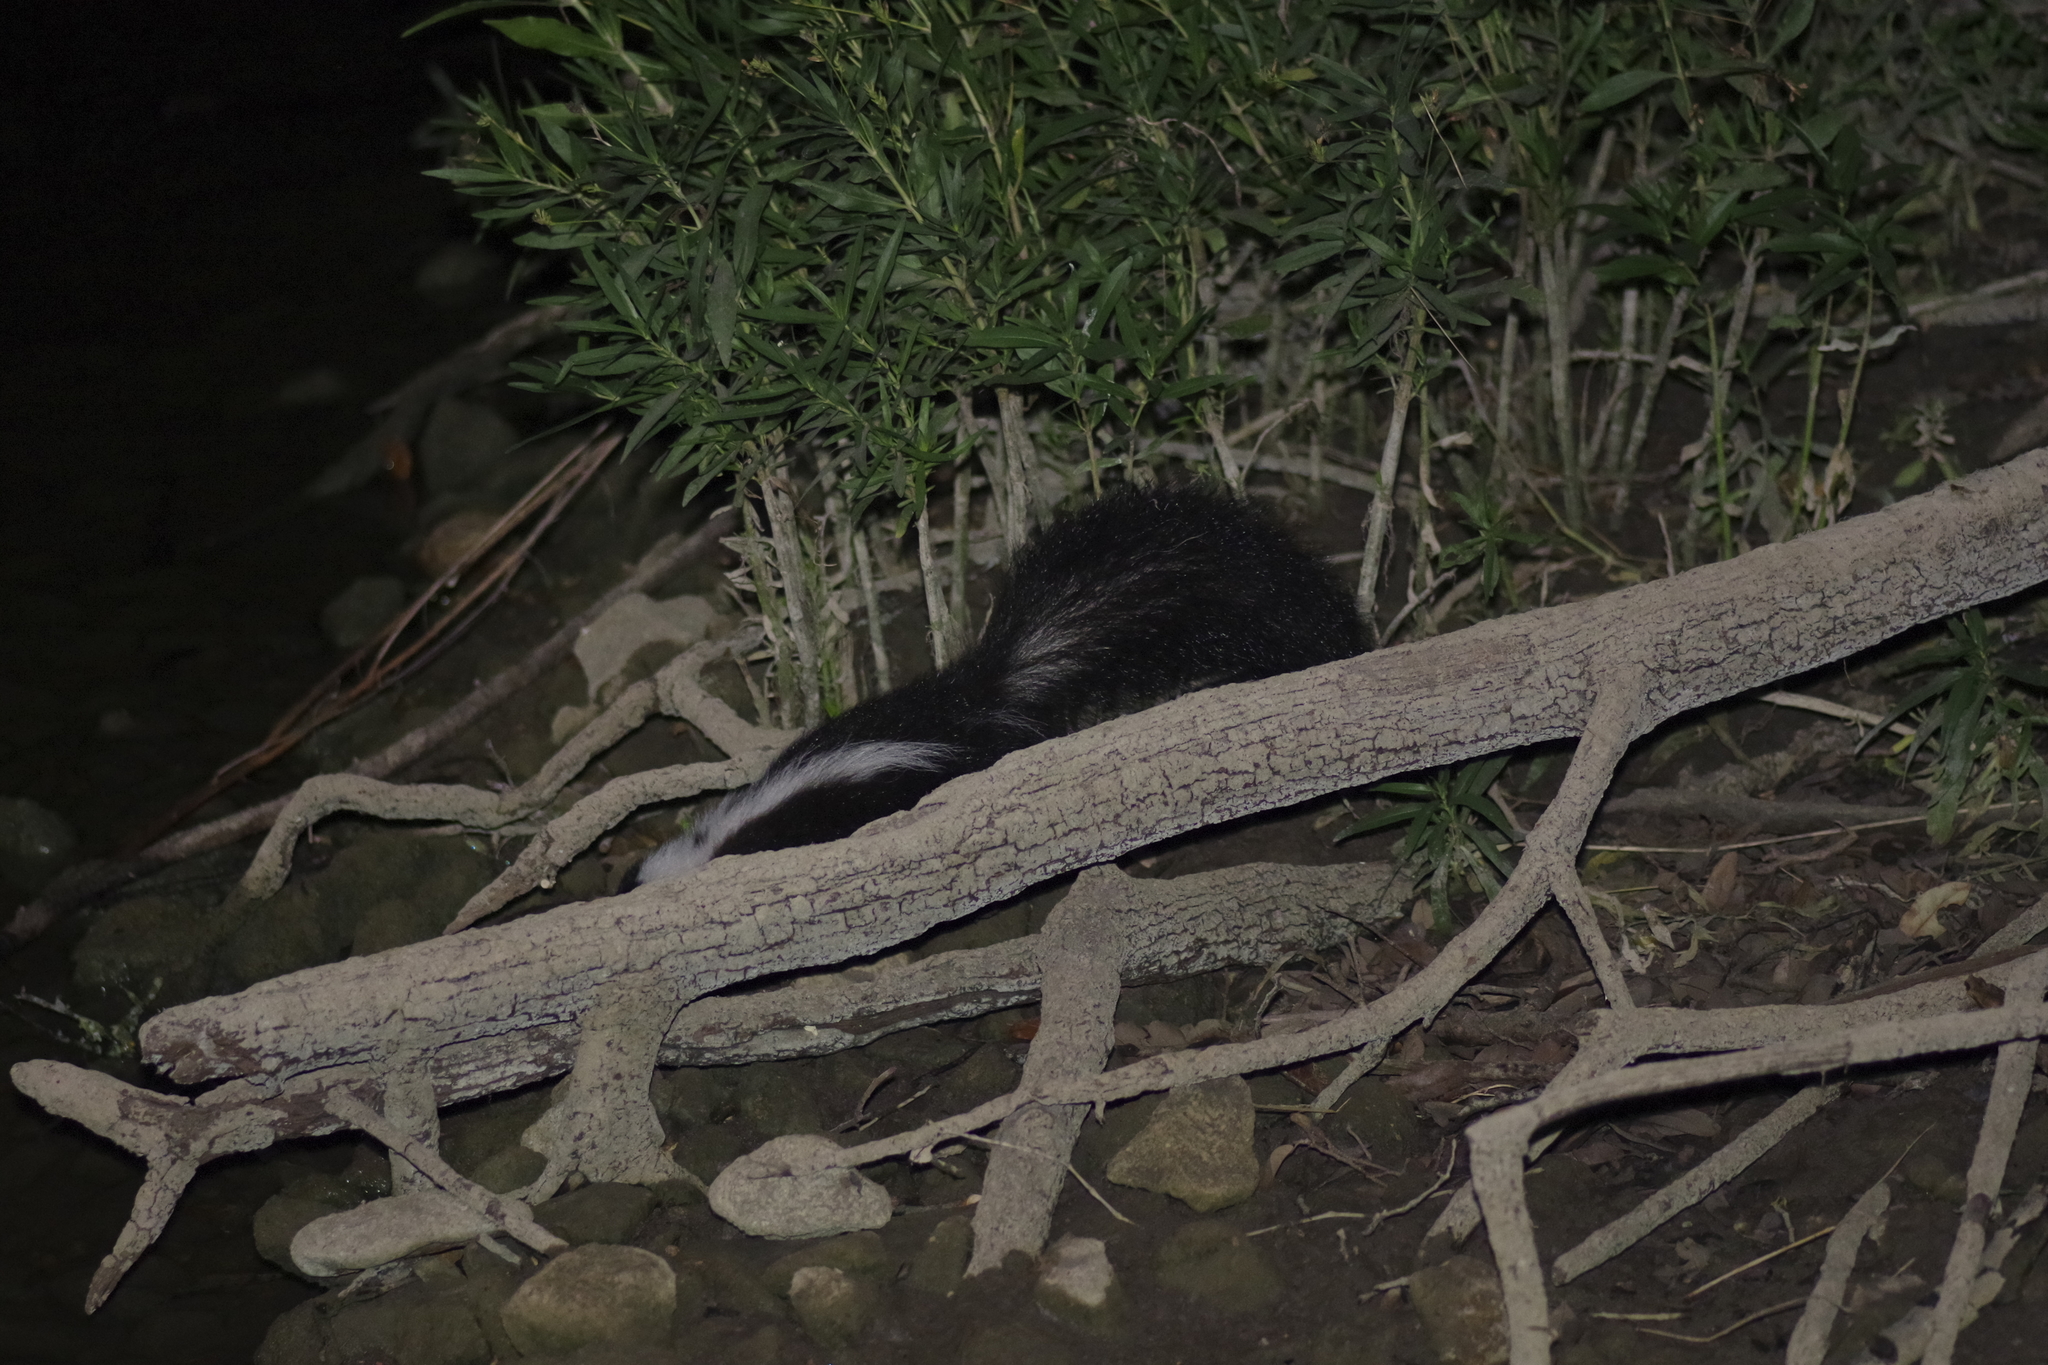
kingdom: Animalia
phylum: Chordata
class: Mammalia
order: Carnivora
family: Mephitidae
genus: Mephitis
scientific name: Mephitis mephitis
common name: Striped skunk
